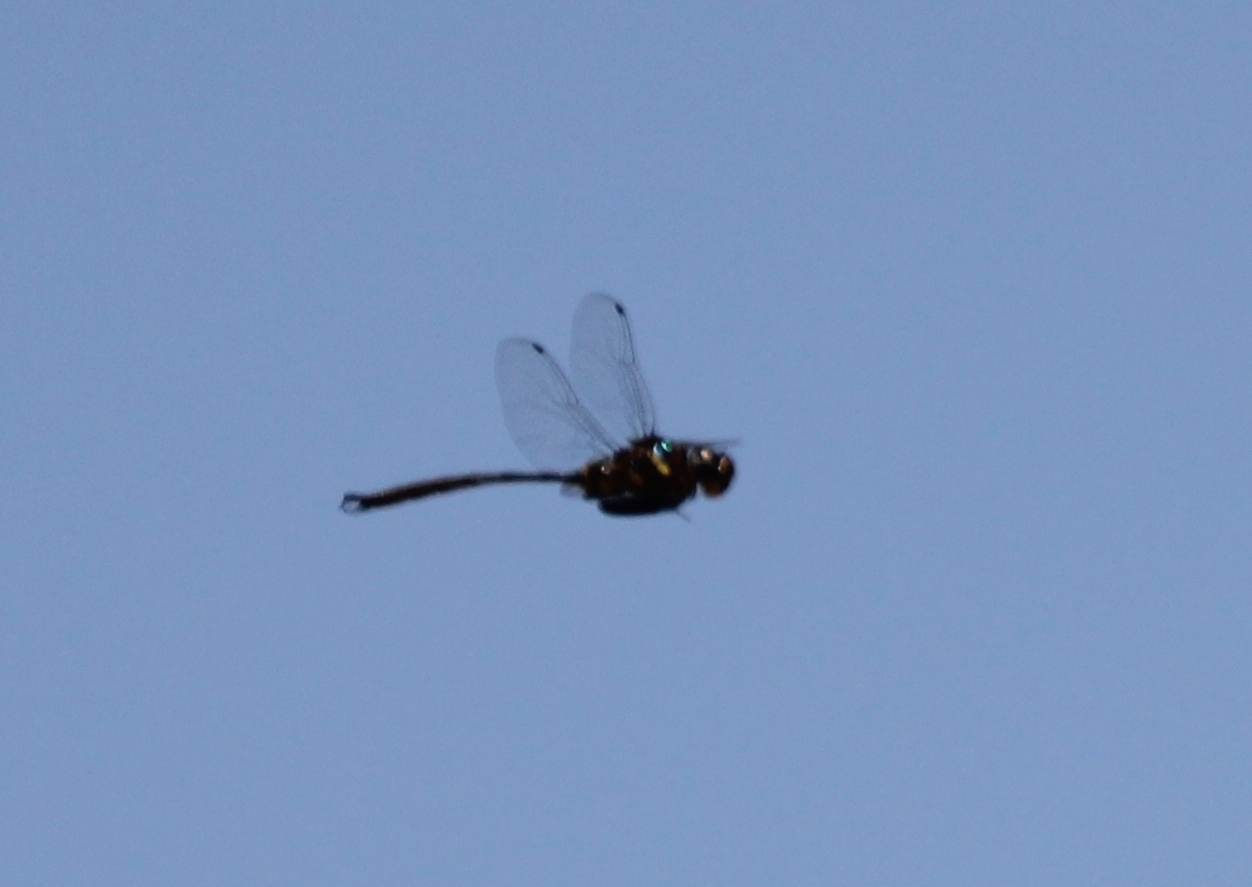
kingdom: Animalia
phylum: Arthropoda
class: Insecta
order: Odonata
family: Corduliidae
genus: Somatochlora
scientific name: Somatochlora tenebrosa
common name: Clamp-tipped emerald
